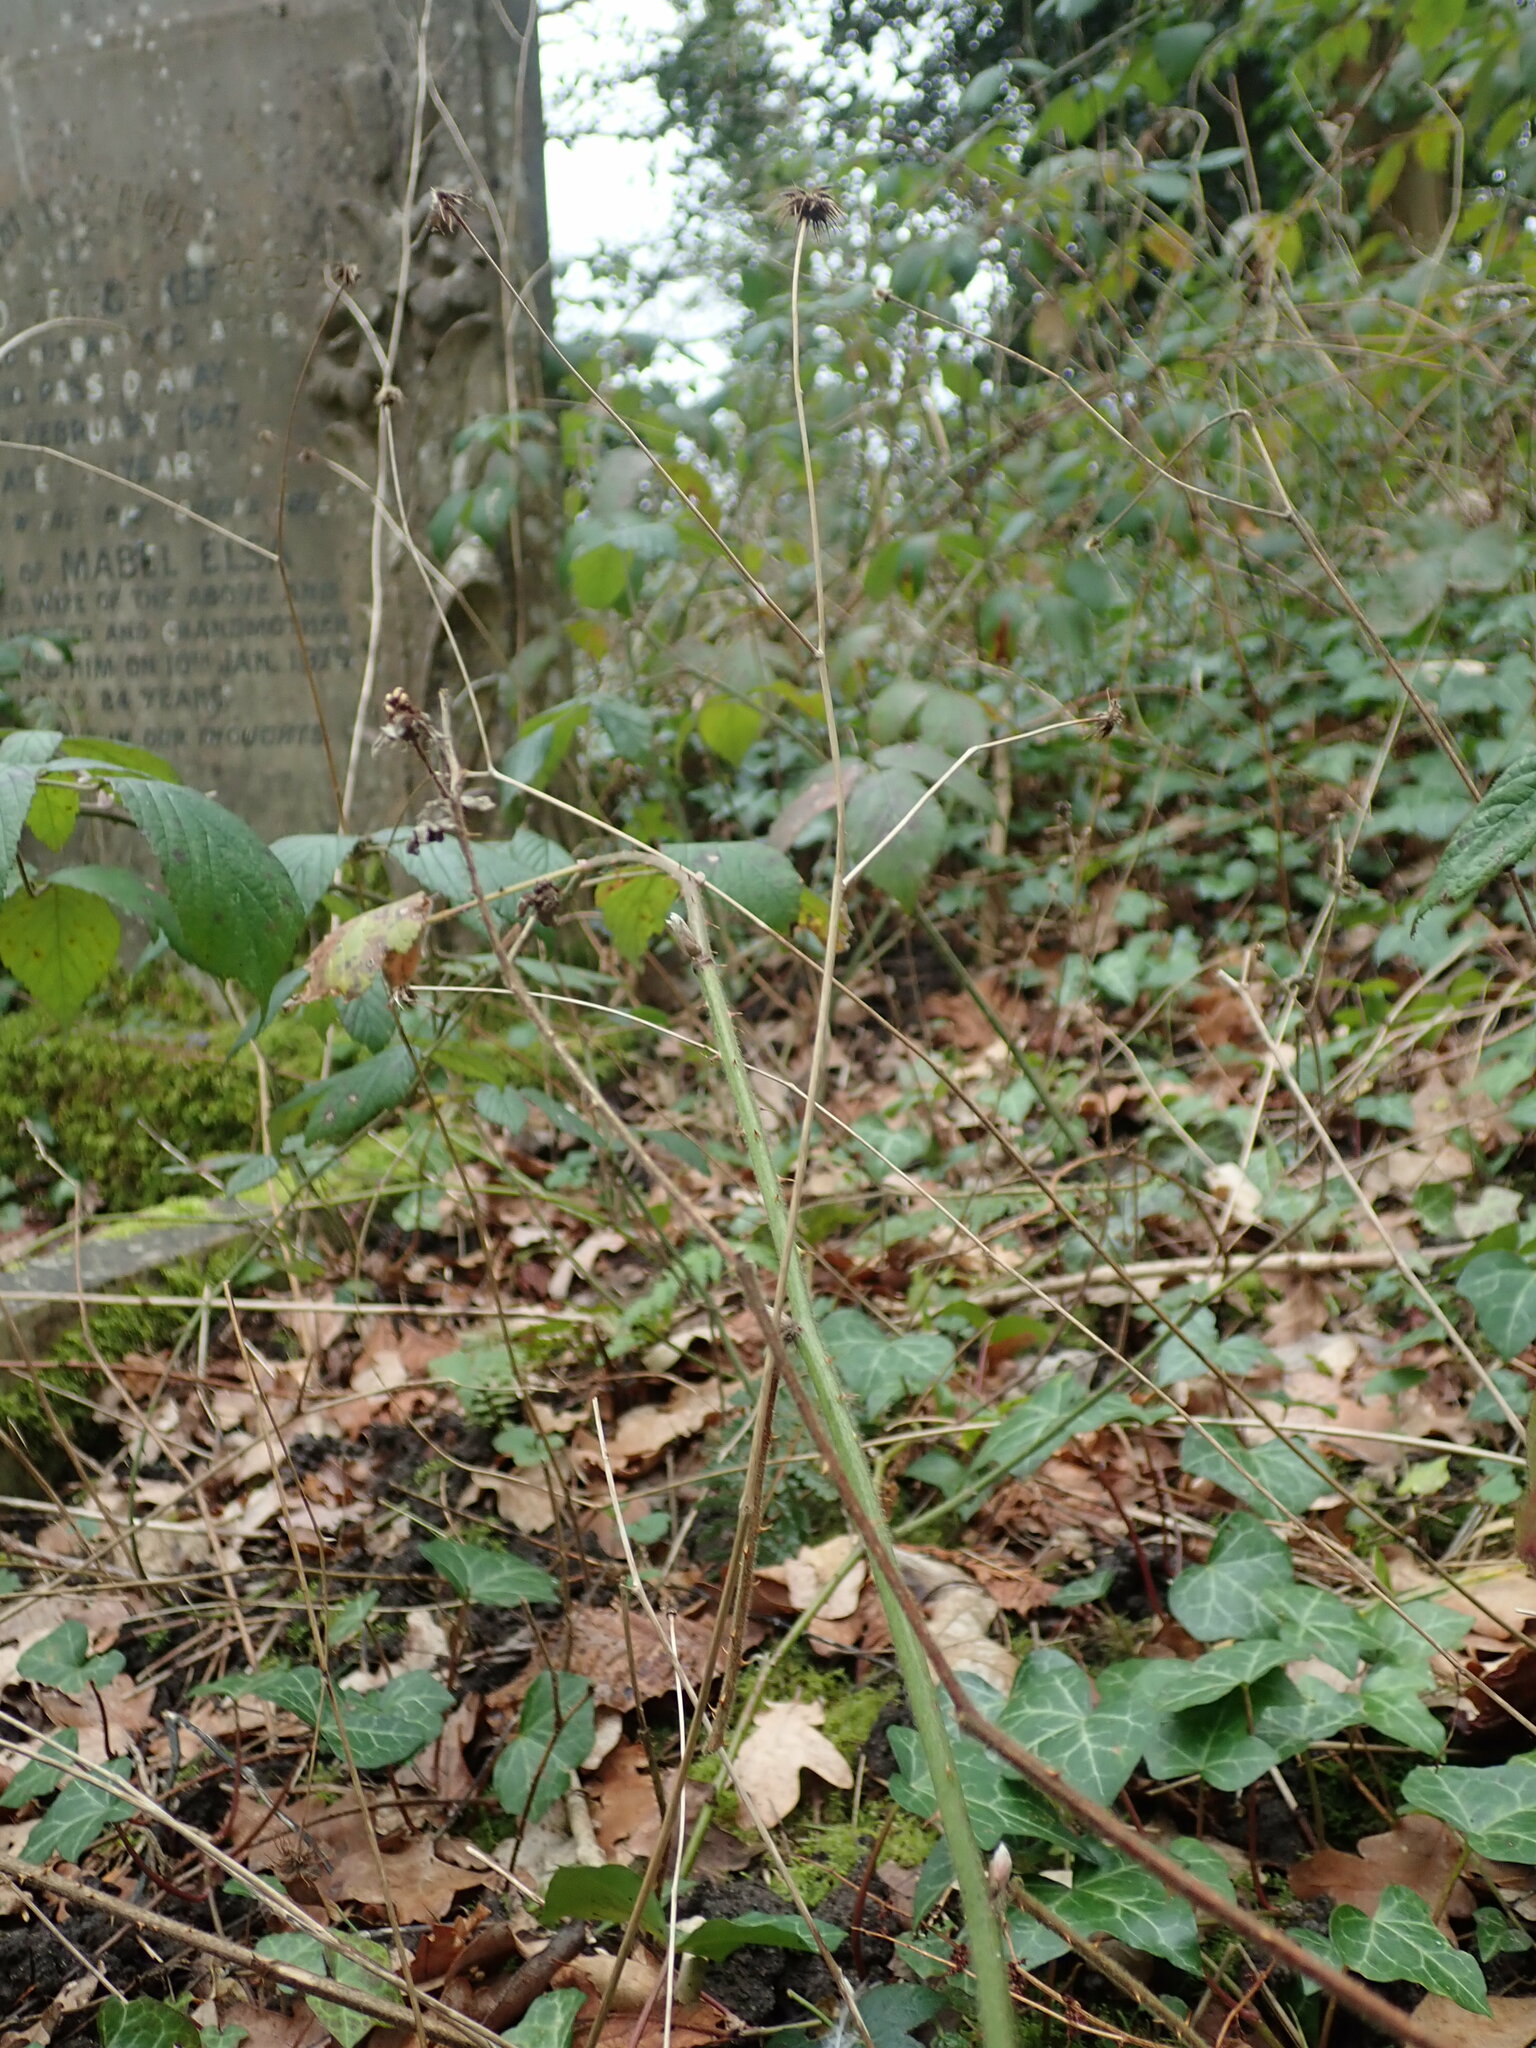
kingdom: Plantae
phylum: Tracheophyta
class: Magnoliopsida
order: Rosales
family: Rosaceae
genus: Geum
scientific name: Geum urbanum
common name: Wood avens
